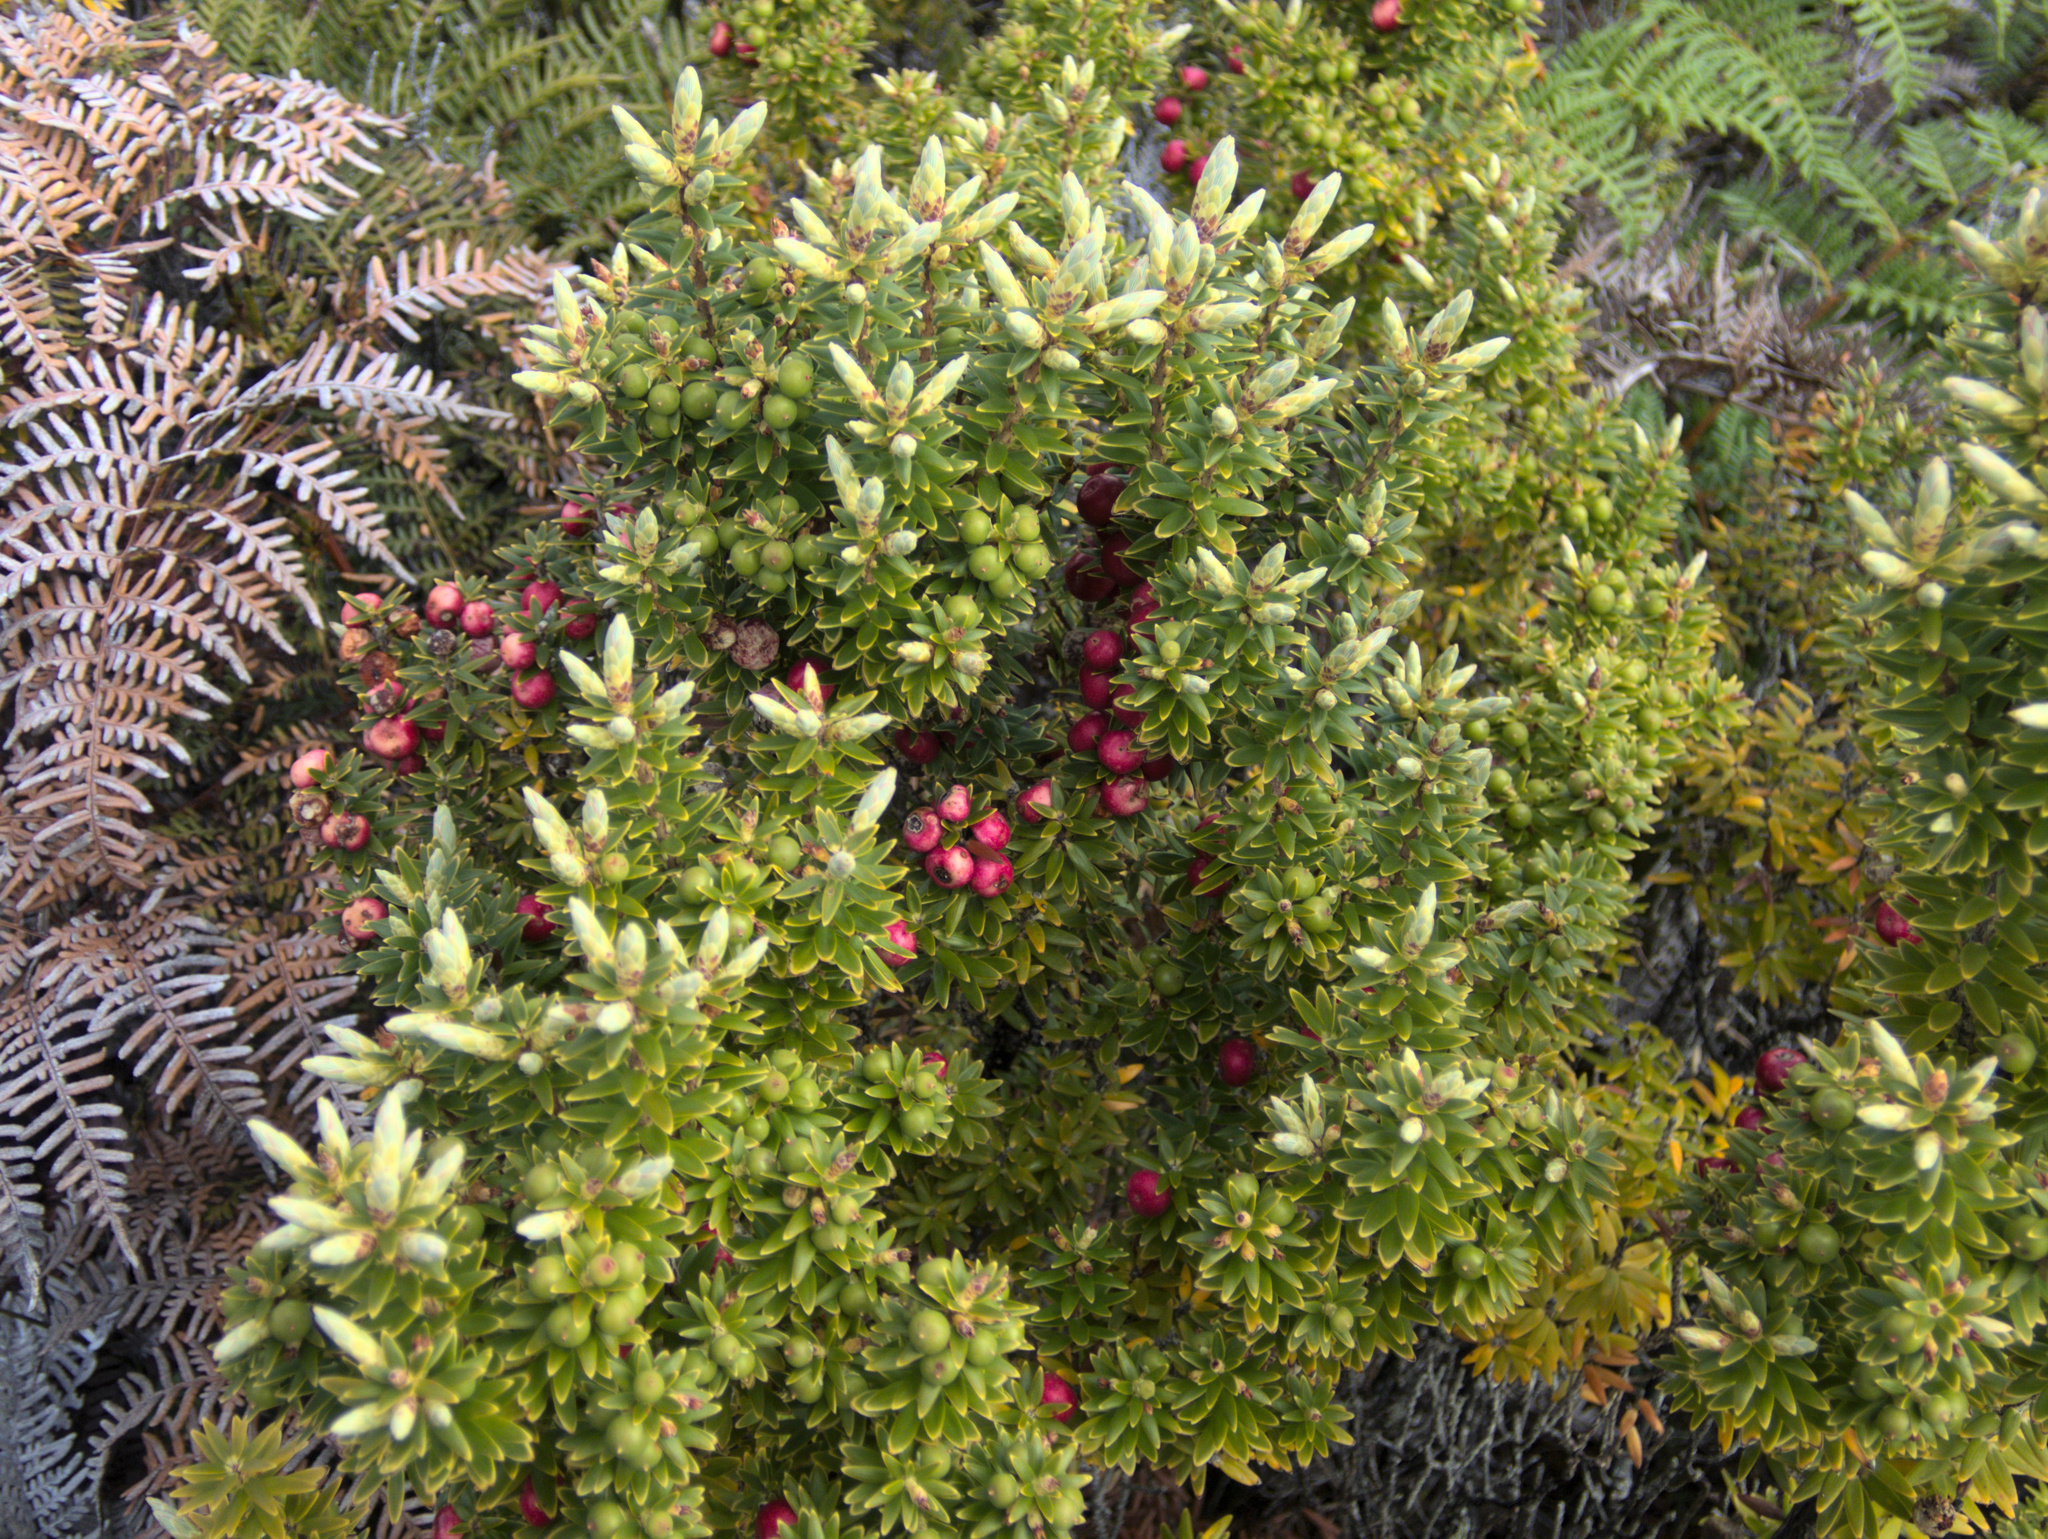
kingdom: Plantae
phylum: Tracheophyta
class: Magnoliopsida
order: Ericales
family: Ericaceae
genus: Leptecophylla
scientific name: Leptecophylla robusta
